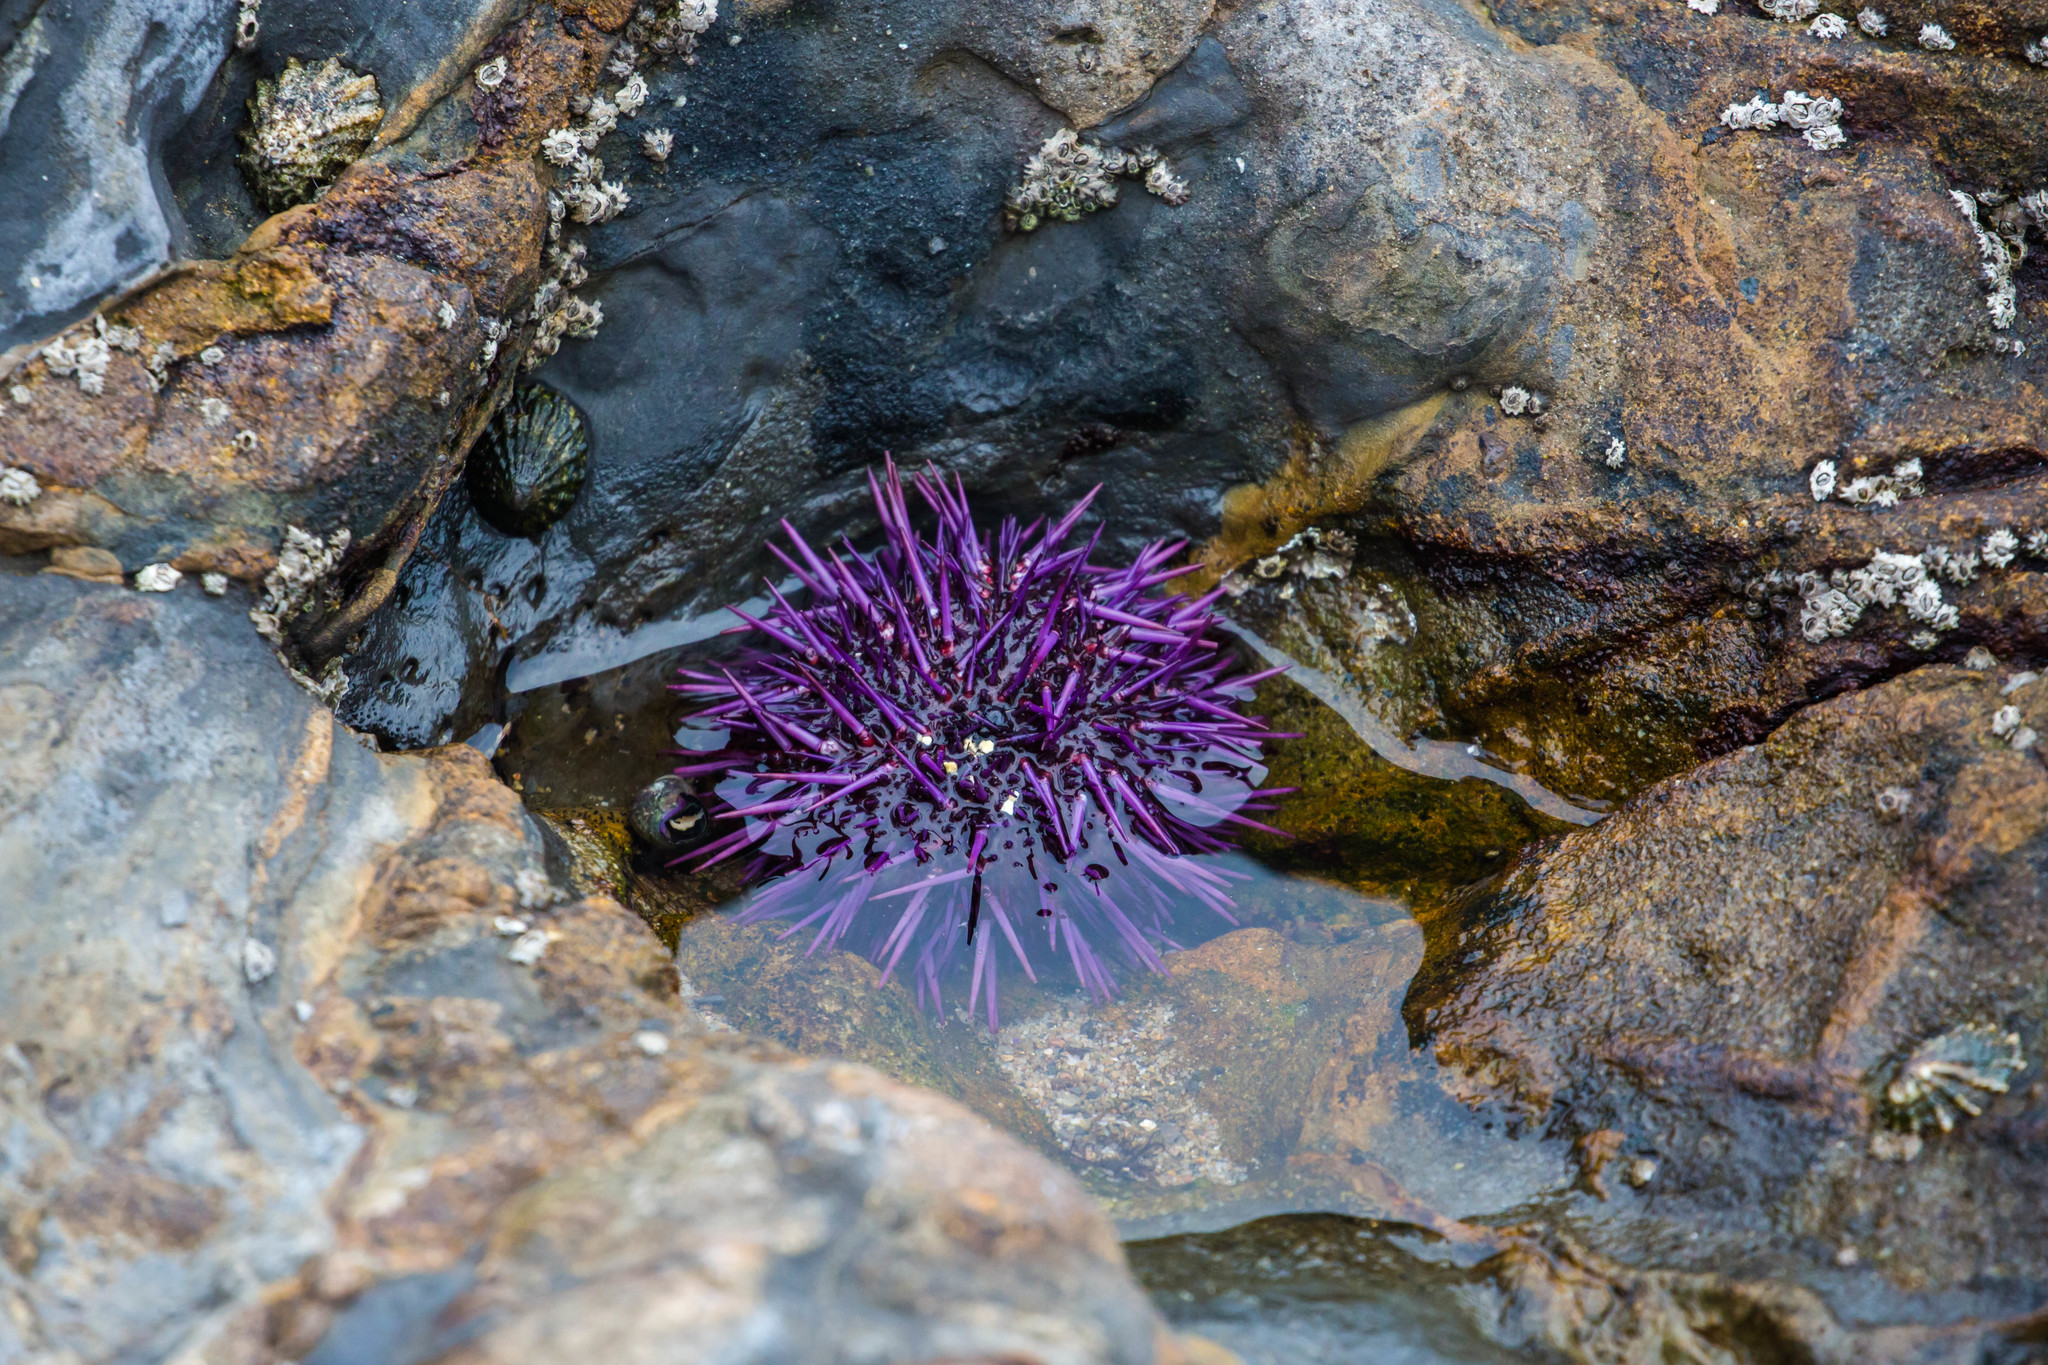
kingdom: Animalia
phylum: Echinodermata
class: Echinoidea
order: Camarodonta
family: Strongylocentrotidae
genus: Strongylocentrotus
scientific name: Strongylocentrotus purpuratus
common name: Purple sea urchin
